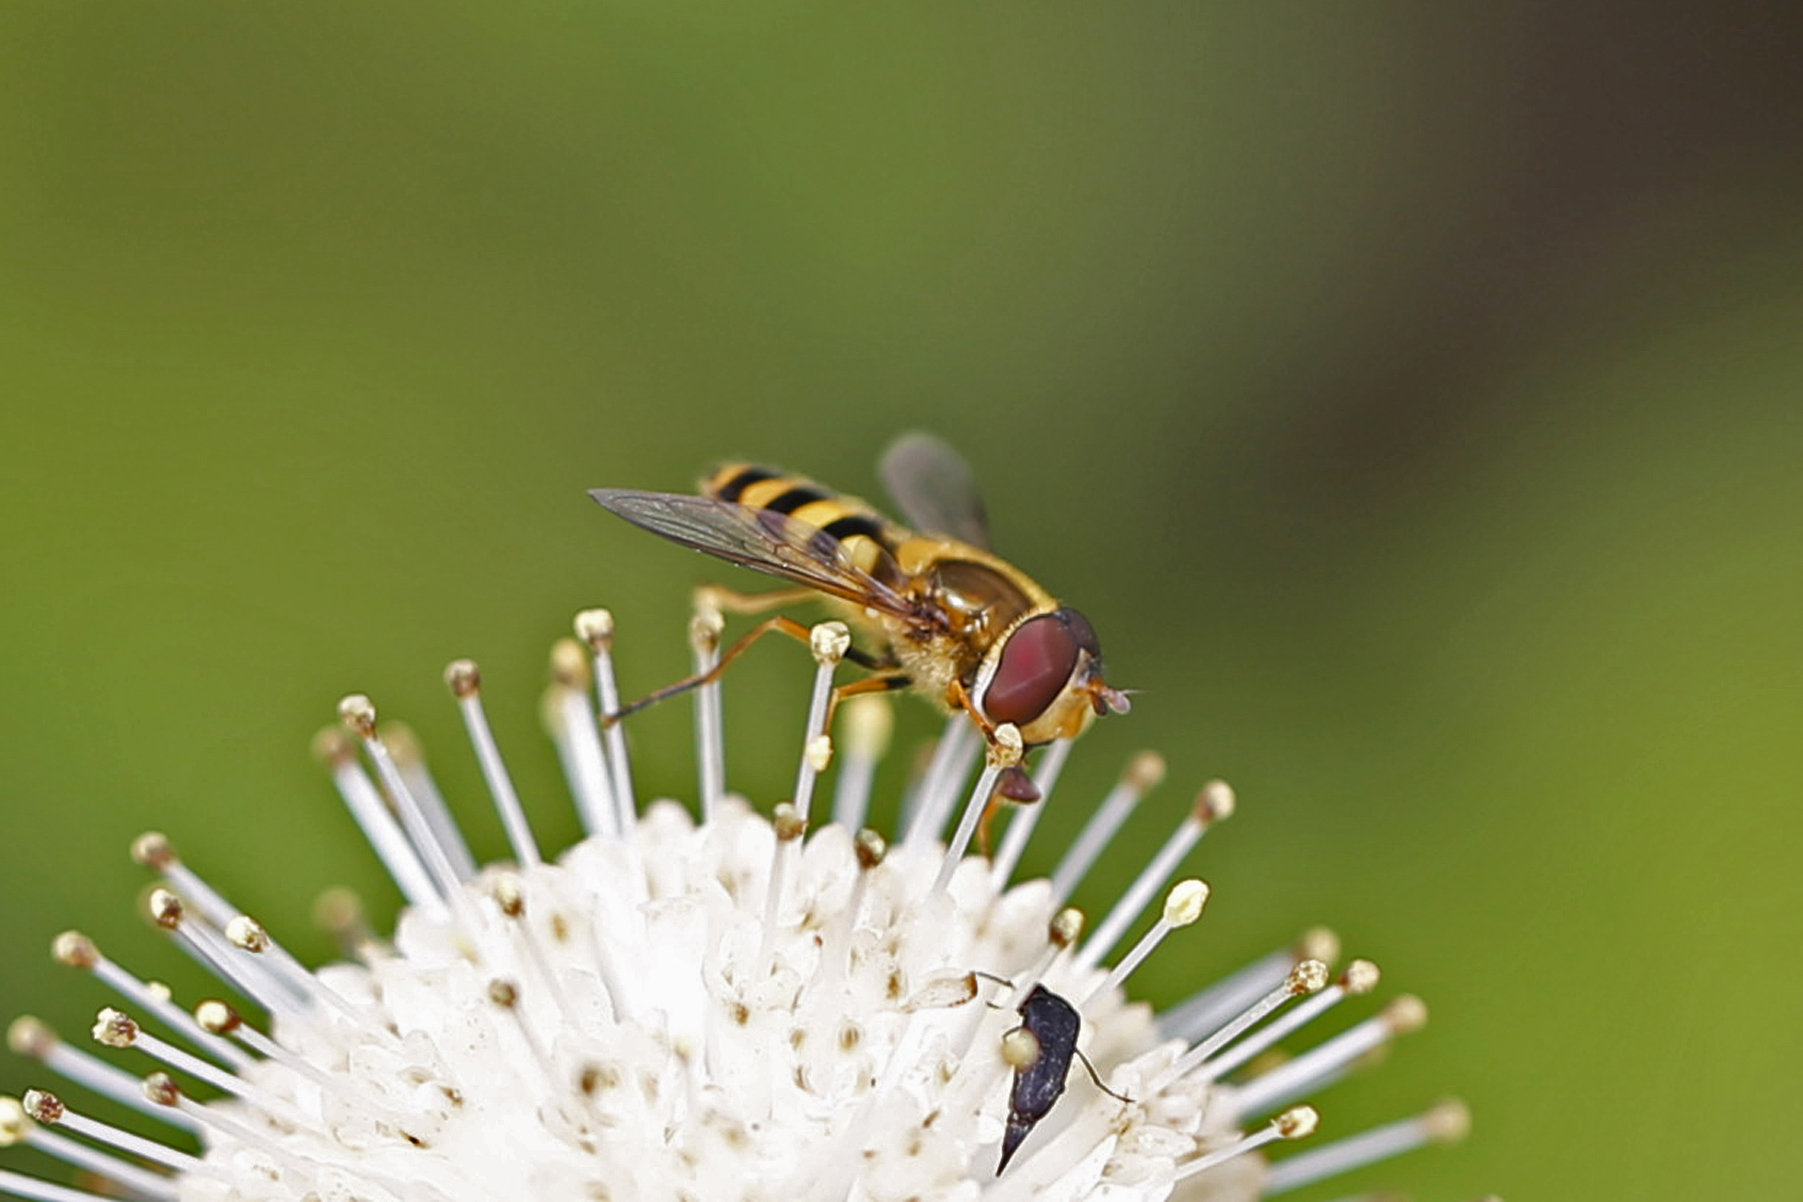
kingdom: Animalia
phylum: Arthropoda
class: Insecta
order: Diptera
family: Syrphidae
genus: Syrphus
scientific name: Syrphus
